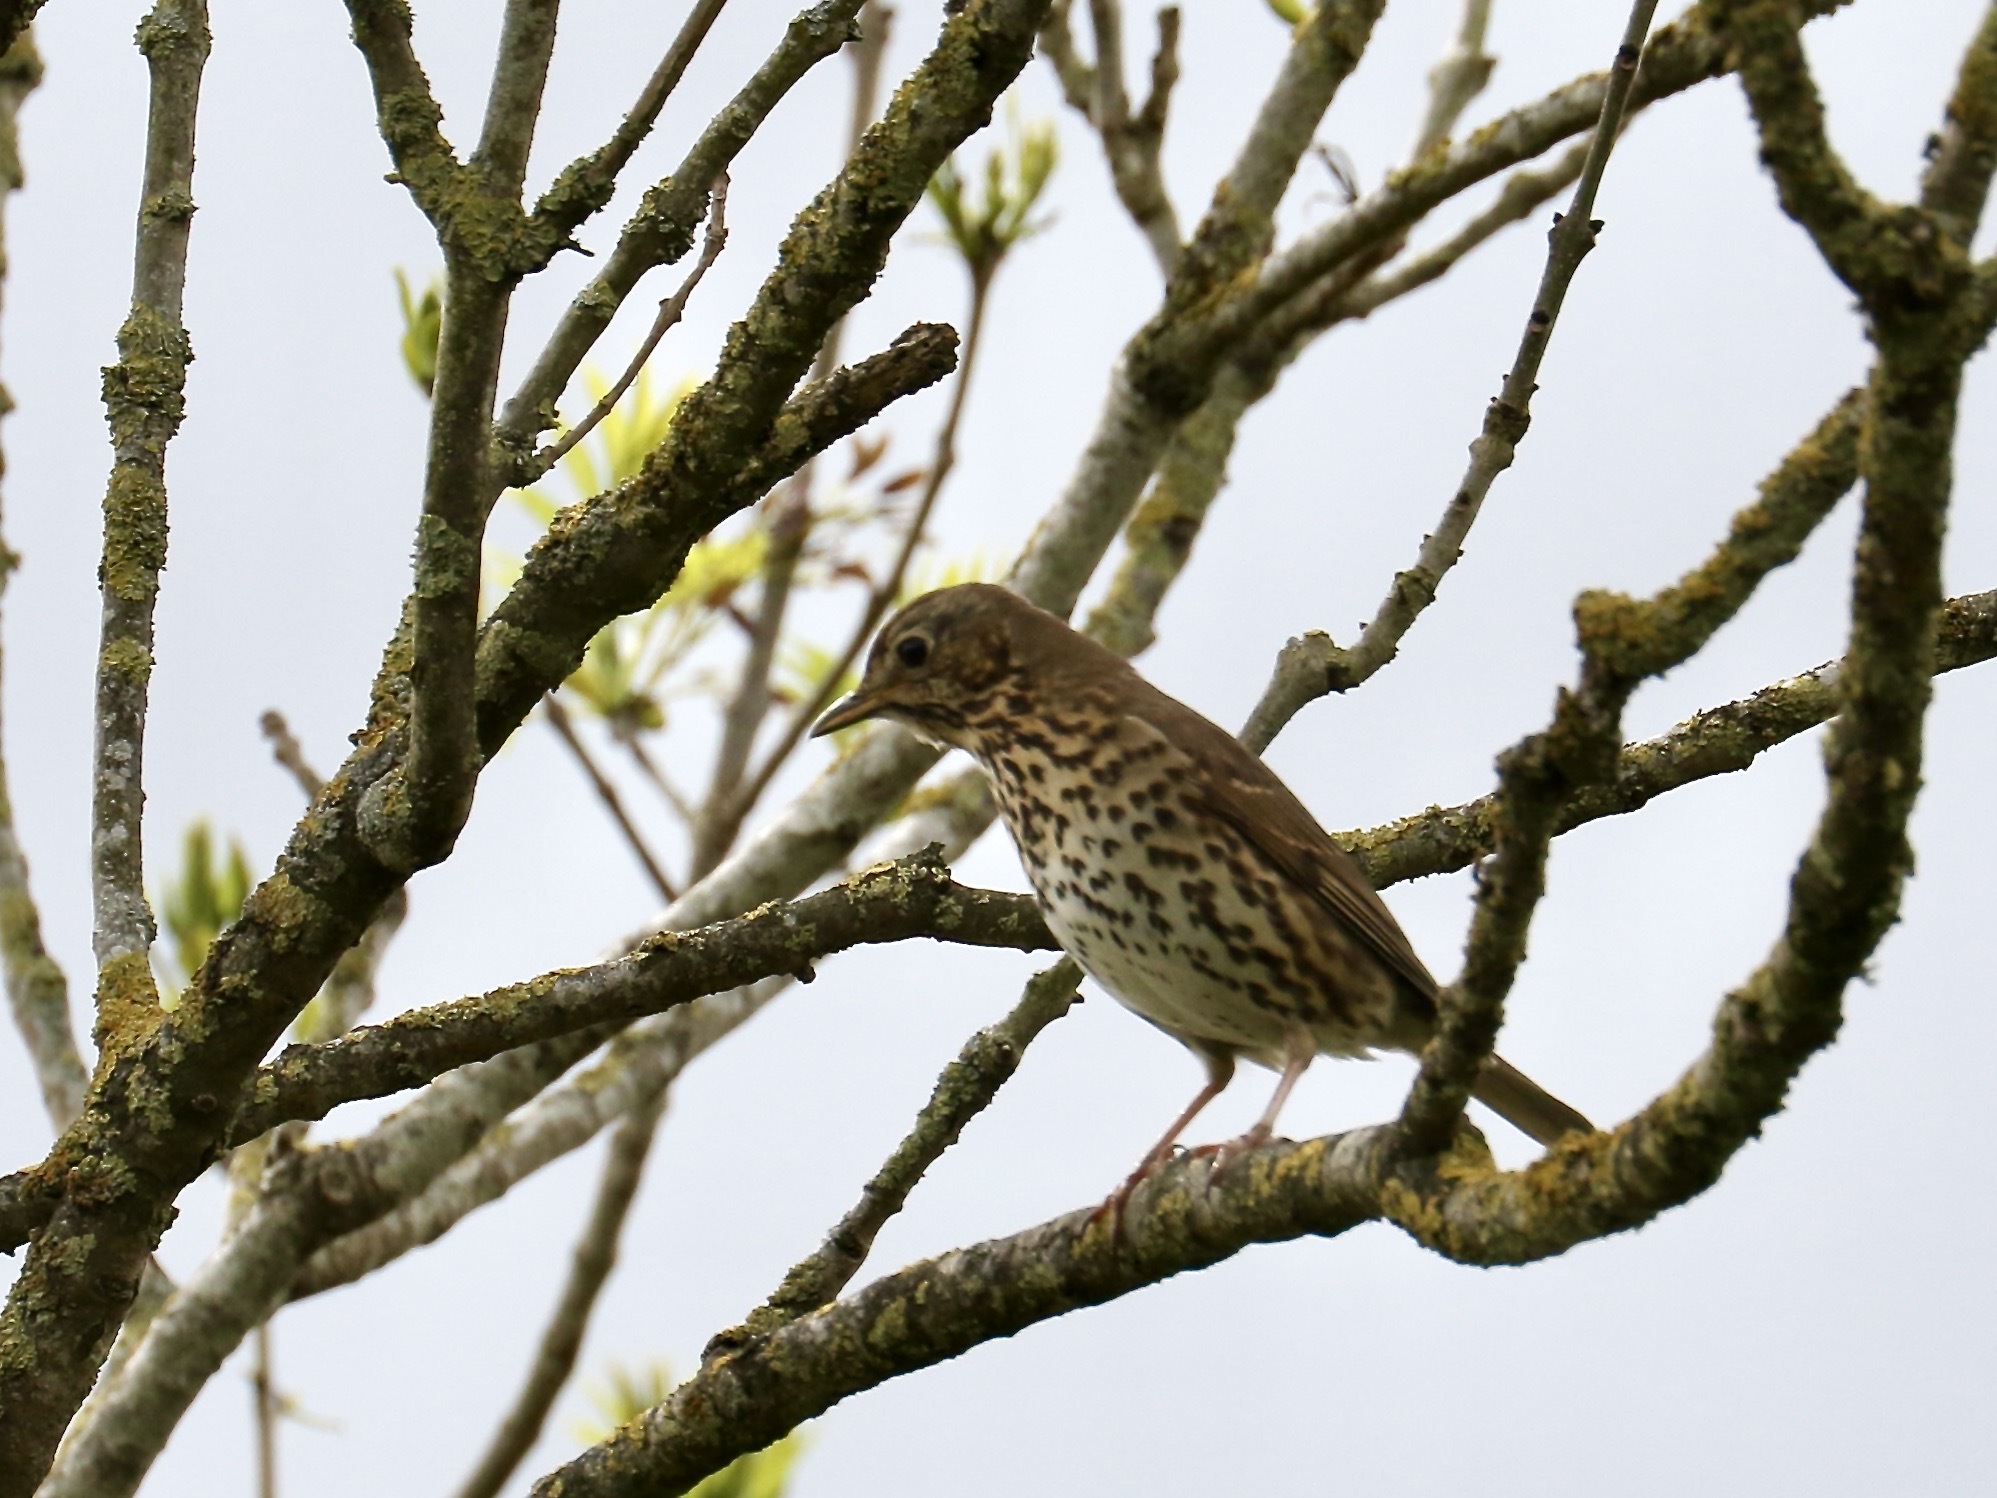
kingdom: Animalia
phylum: Chordata
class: Aves
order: Passeriformes
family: Turdidae
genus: Turdus
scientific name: Turdus philomelos
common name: Song thrush
